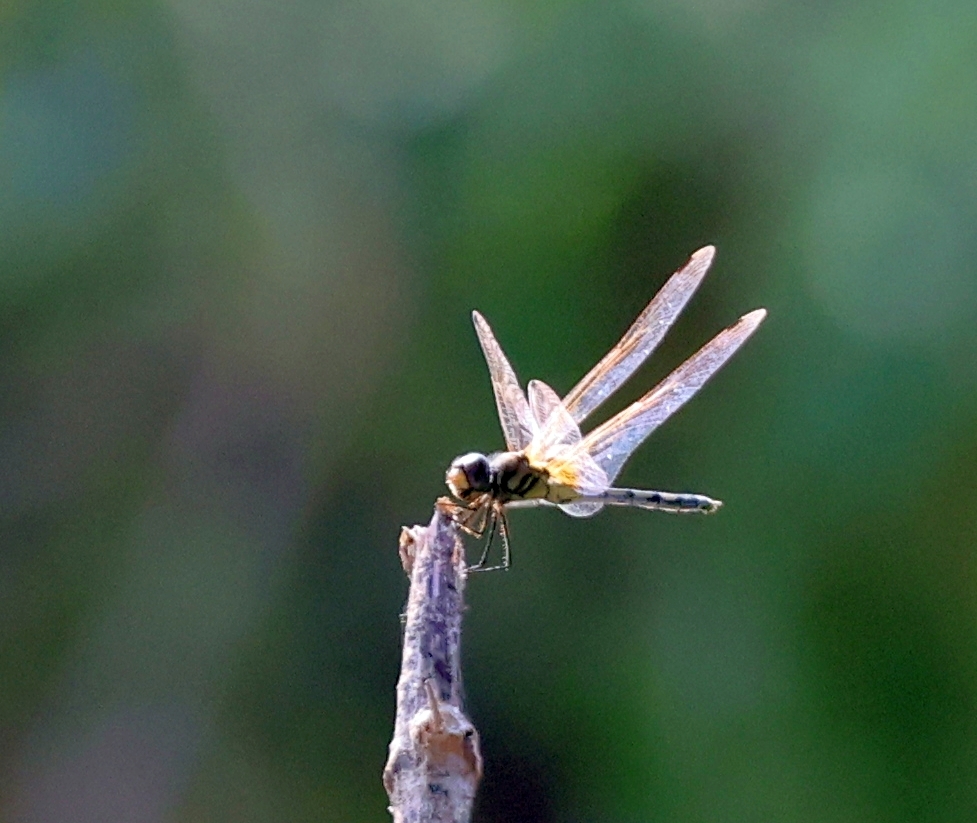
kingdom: Animalia
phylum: Arthropoda
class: Insecta
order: Odonata
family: Libellulidae
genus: Trithemis
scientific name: Trithemis pallidinervis
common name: Dancing dropwing
